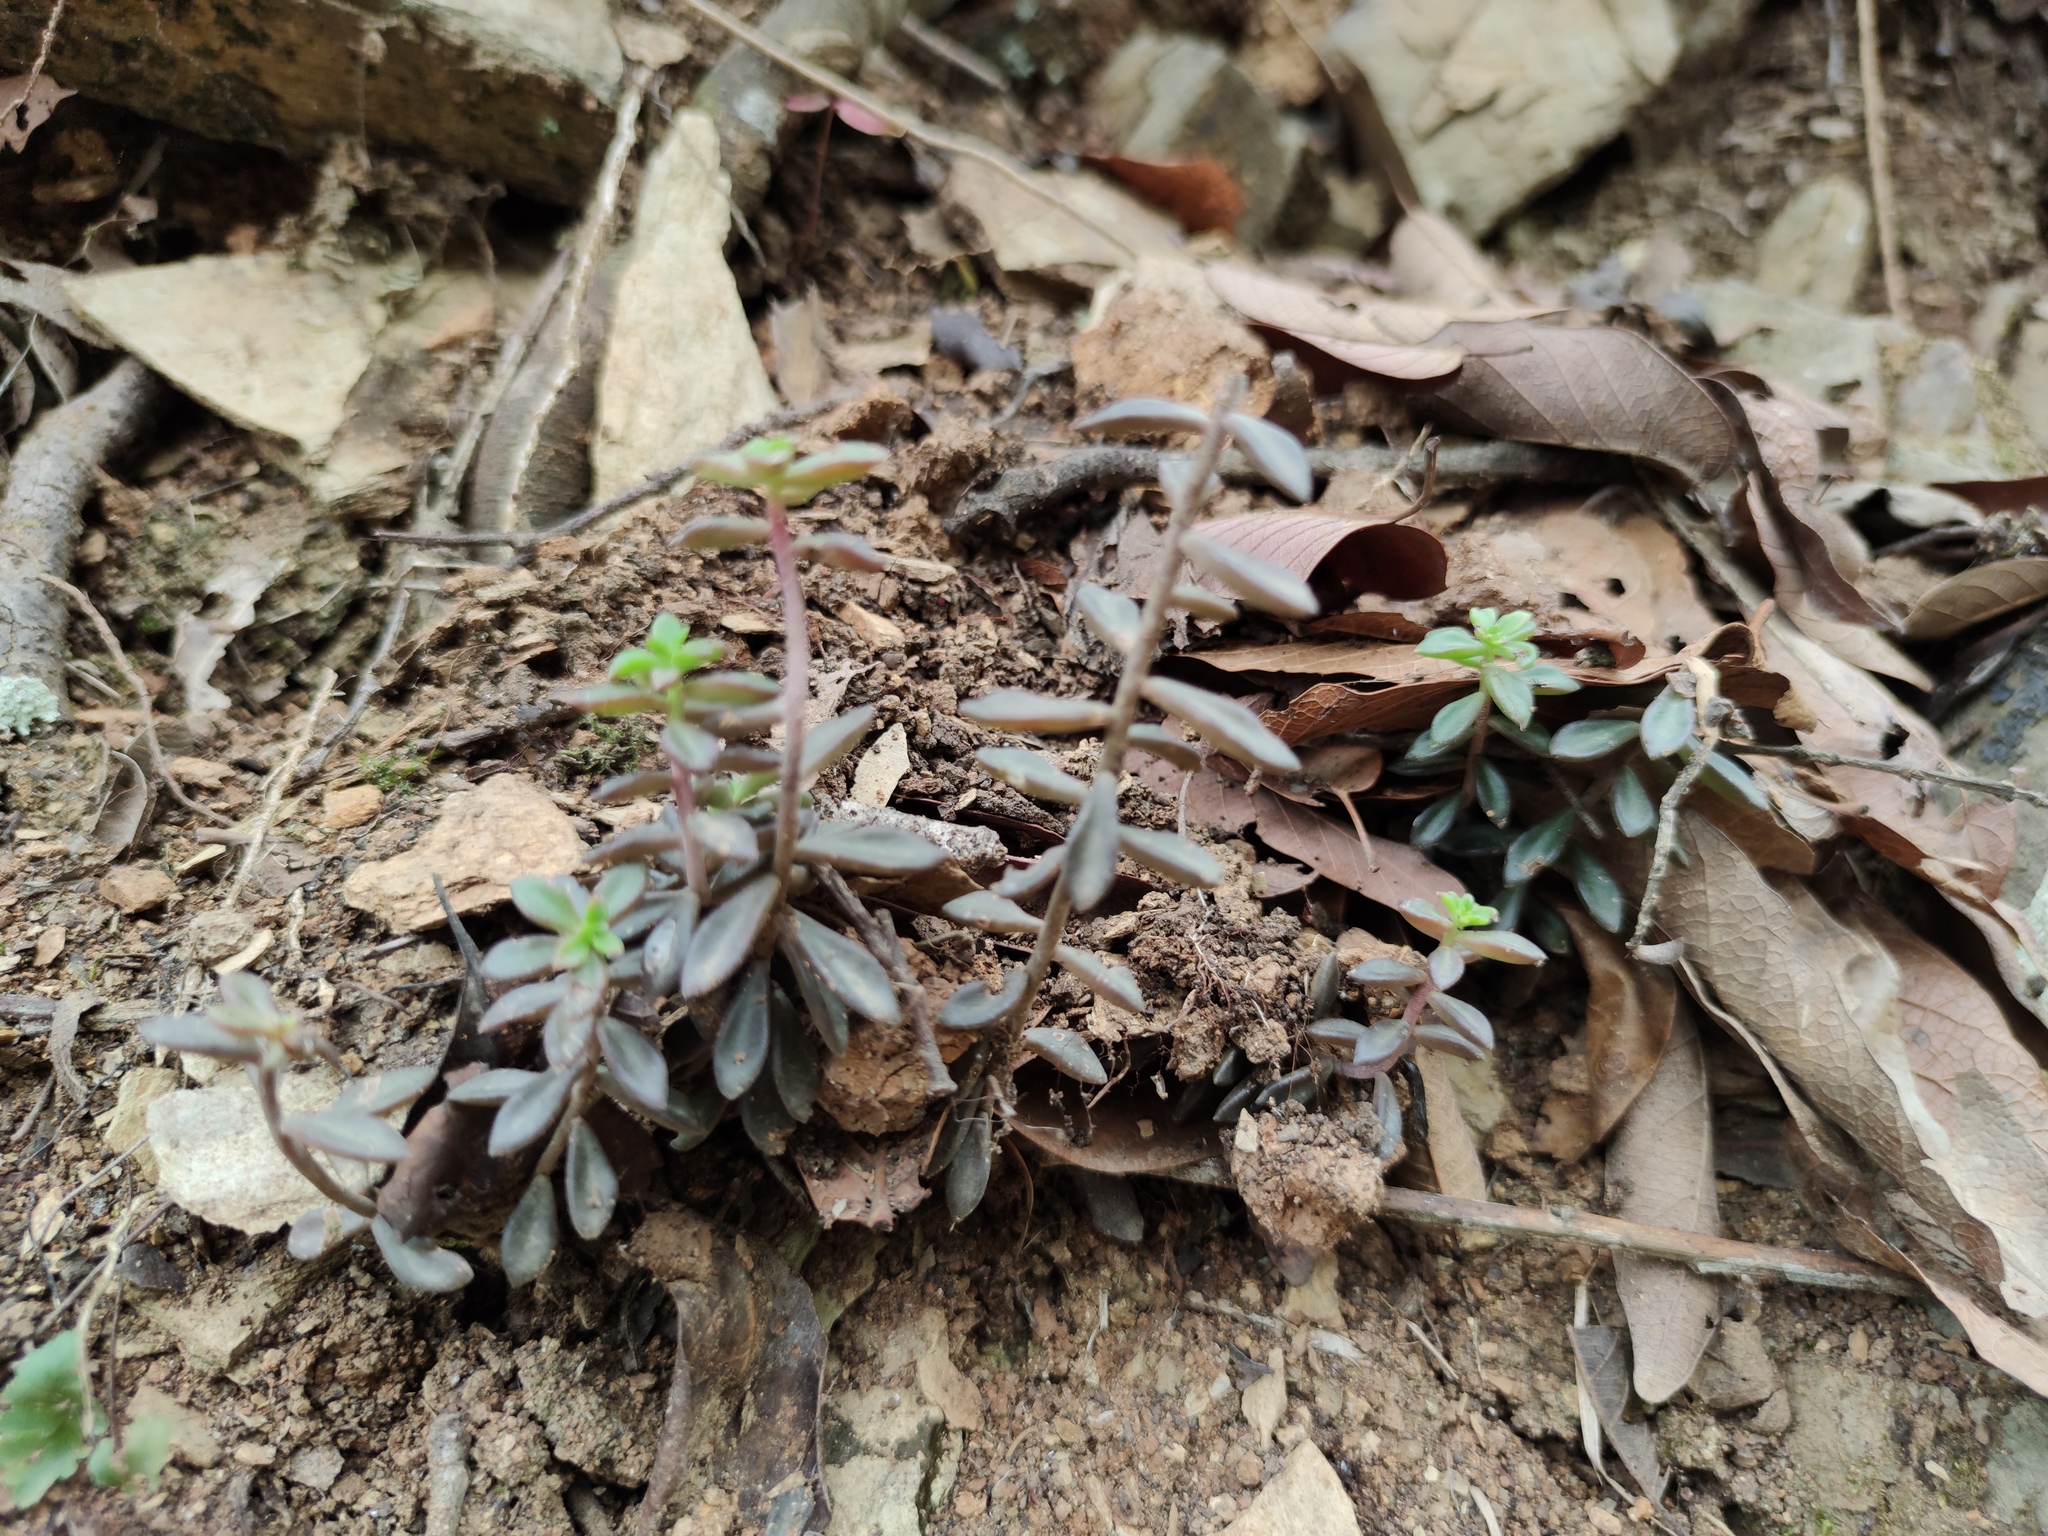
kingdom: Plantae
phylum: Tracheophyta
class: Magnoliopsida
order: Saxifragales
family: Crassulaceae
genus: Sedum
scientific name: Sedum calcicola
